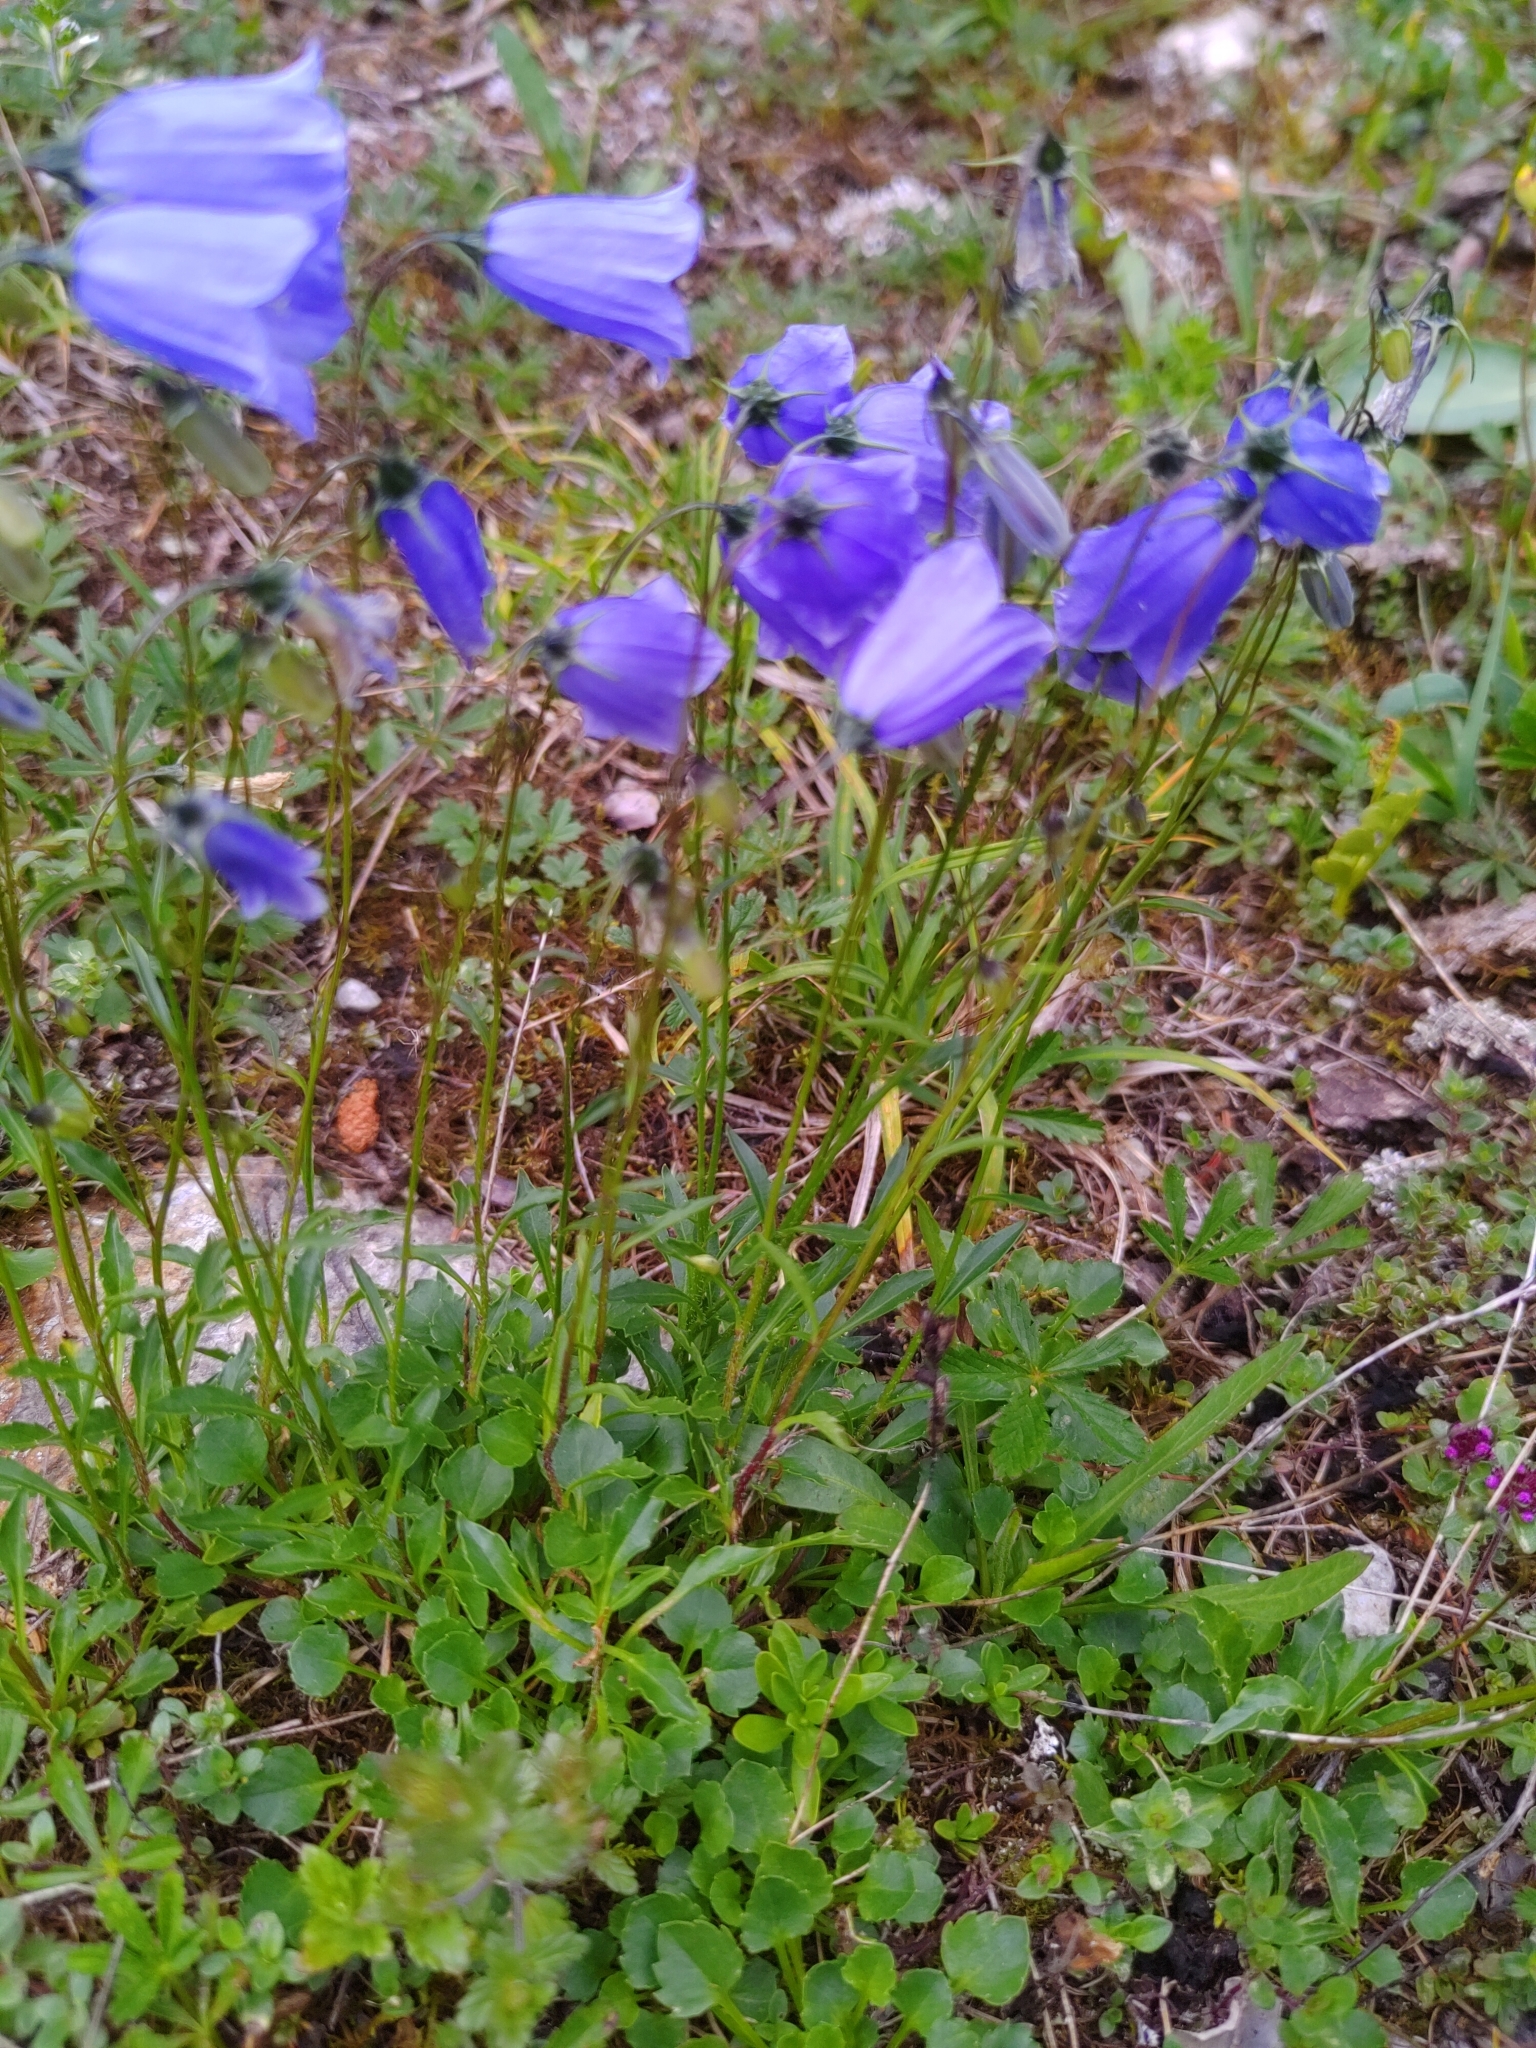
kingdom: Plantae
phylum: Tracheophyta
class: Magnoliopsida
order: Asterales
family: Campanulaceae
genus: Campanula
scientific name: Campanula cochleariifolia
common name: Fairies'-thimbles
